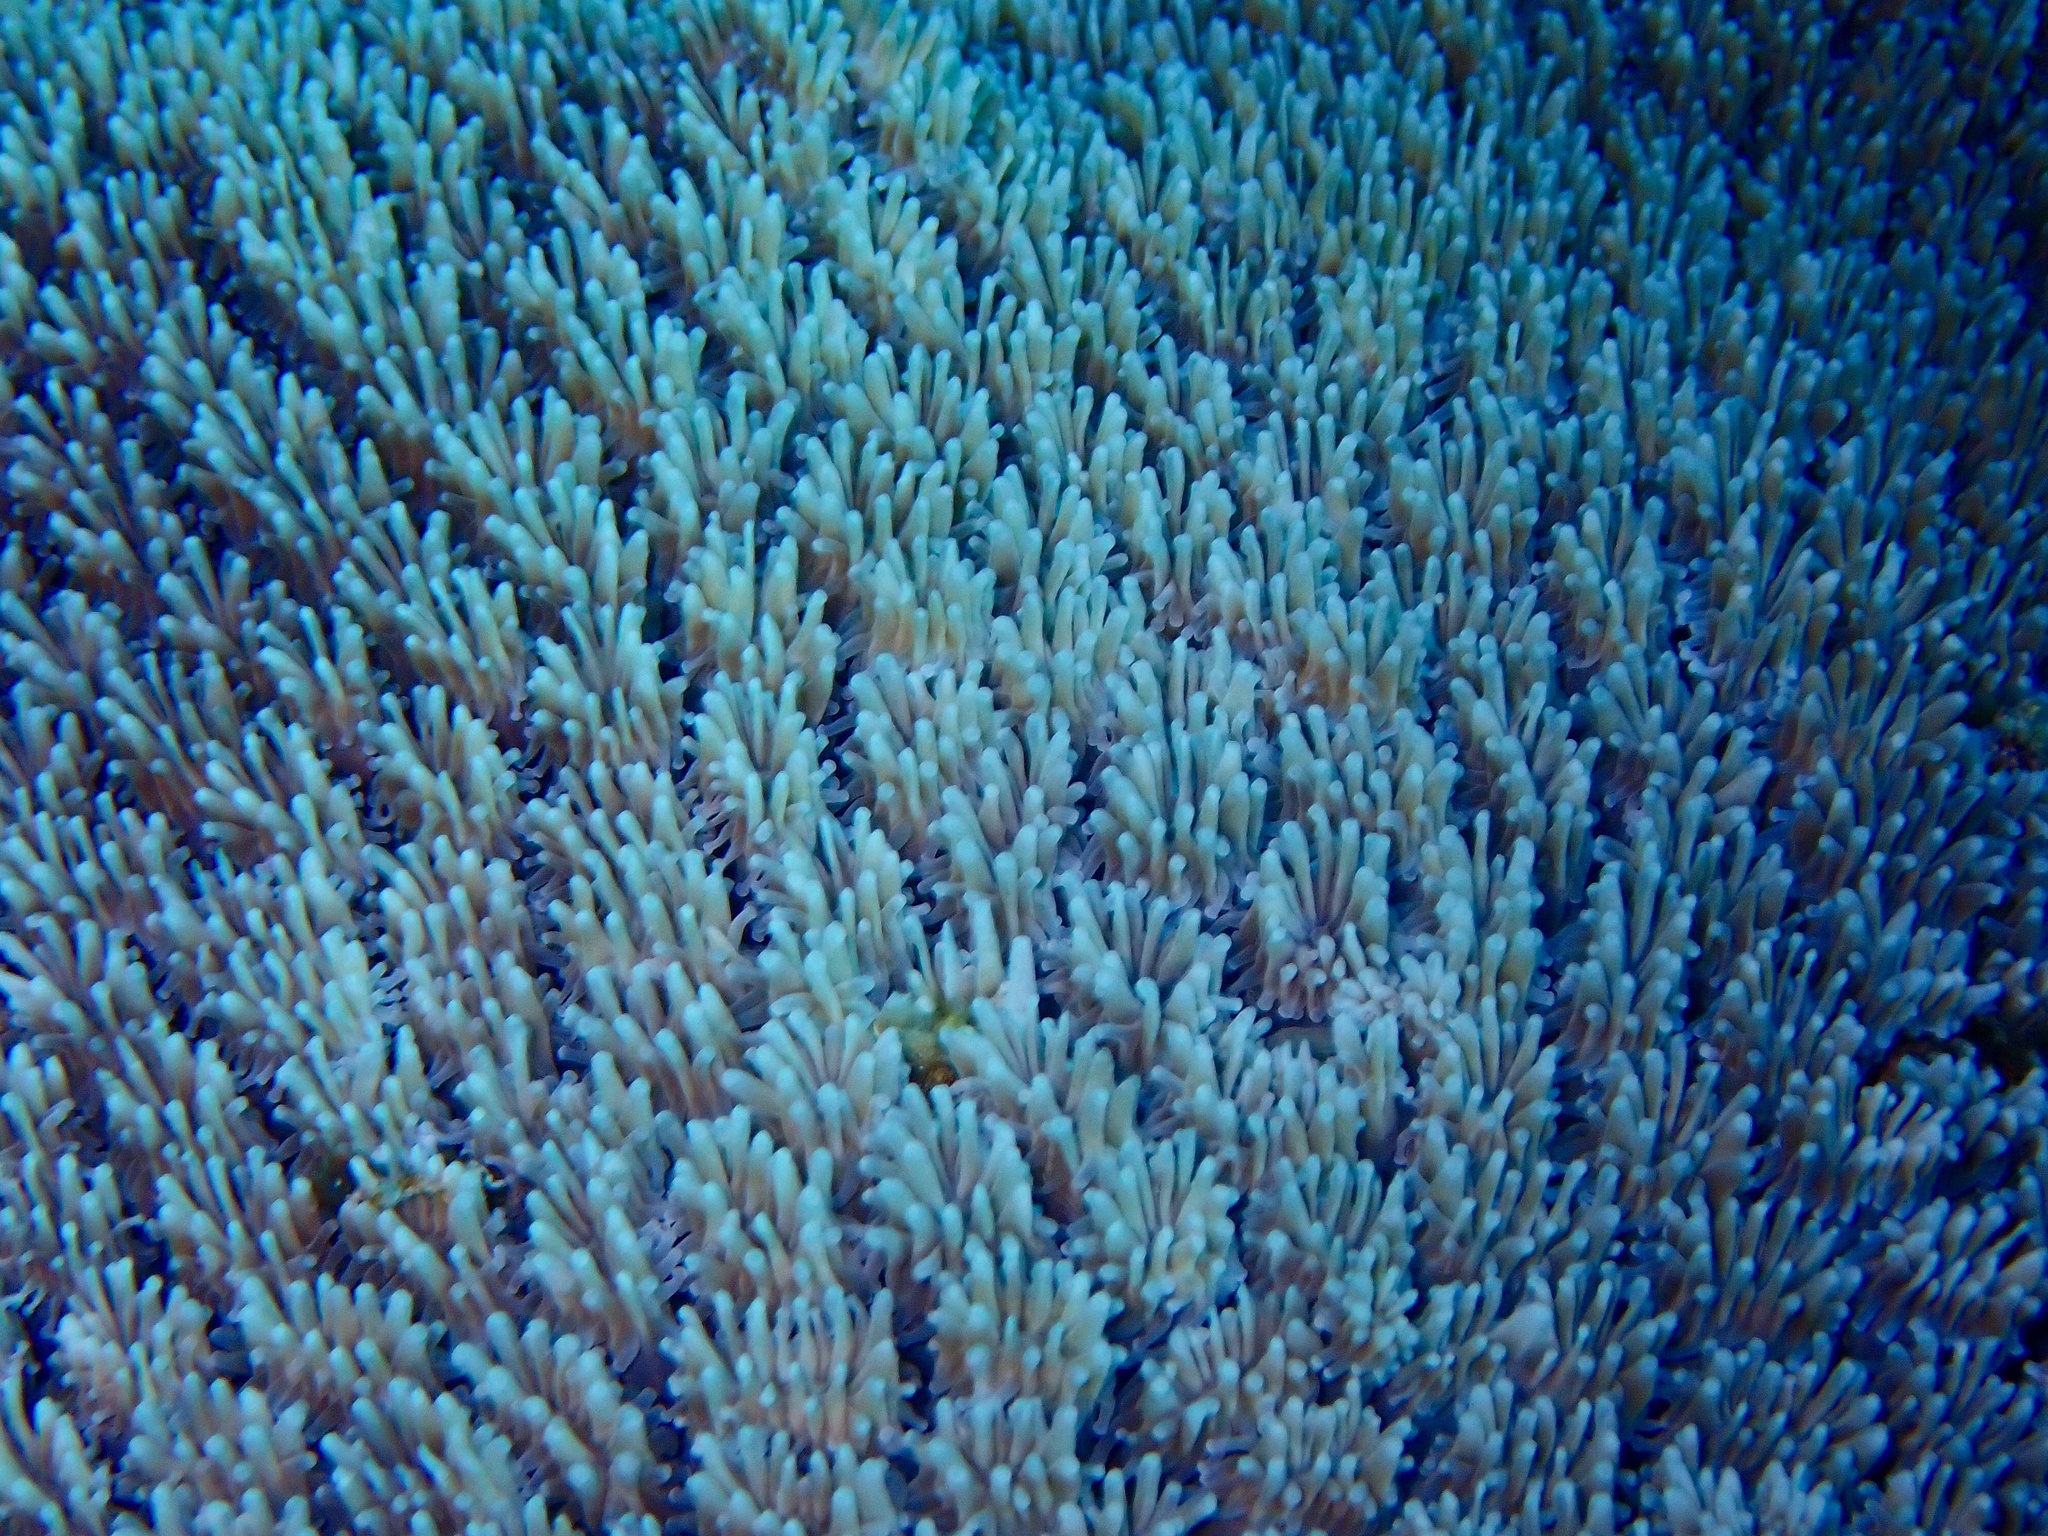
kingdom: Animalia
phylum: Cnidaria
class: Anthozoa
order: Scleractinia
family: Euphylliidae
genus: Galaxea
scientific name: Galaxea fascicularis
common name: Octopus coral
